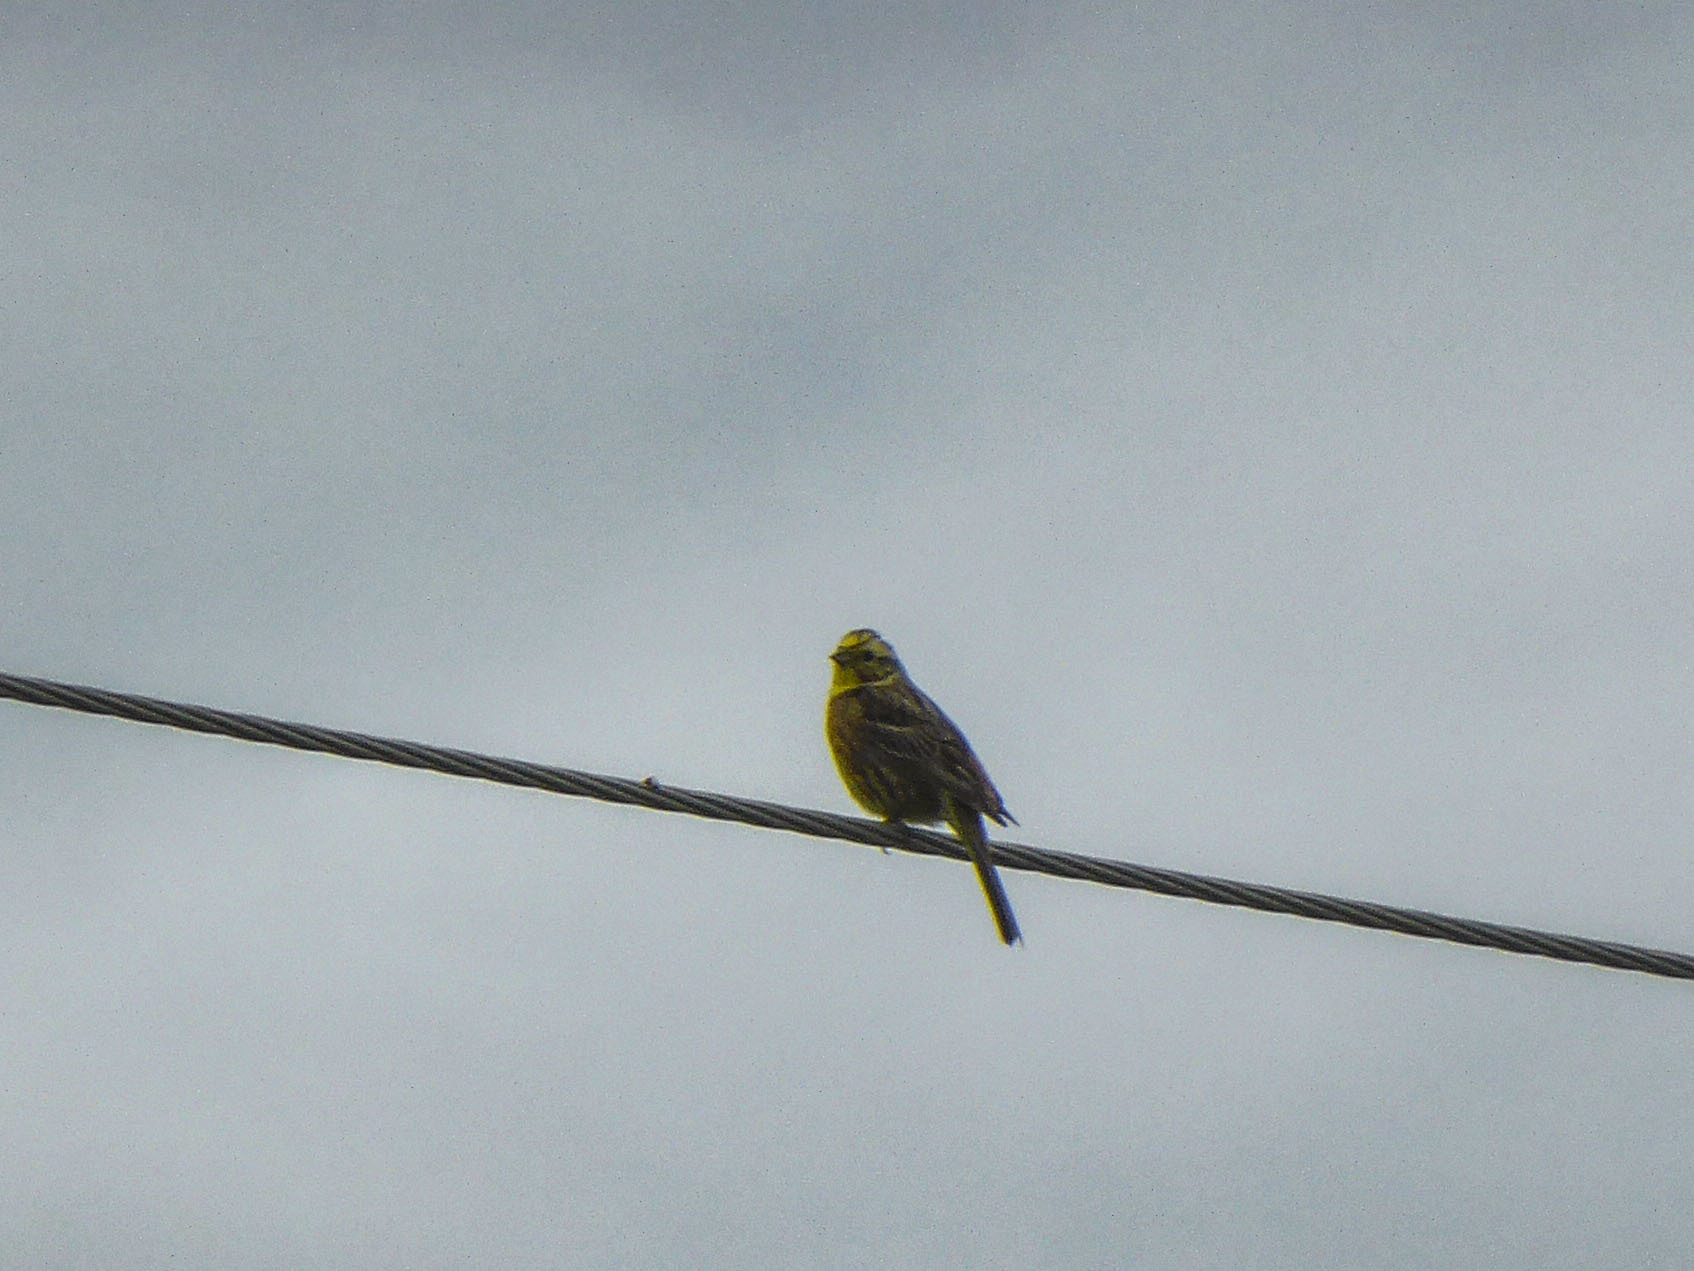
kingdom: Animalia
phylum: Chordata
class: Aves
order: Passeriformes
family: Emberizidae
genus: Emberiza
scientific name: Emberiza citrinella
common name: Yellowhammer
